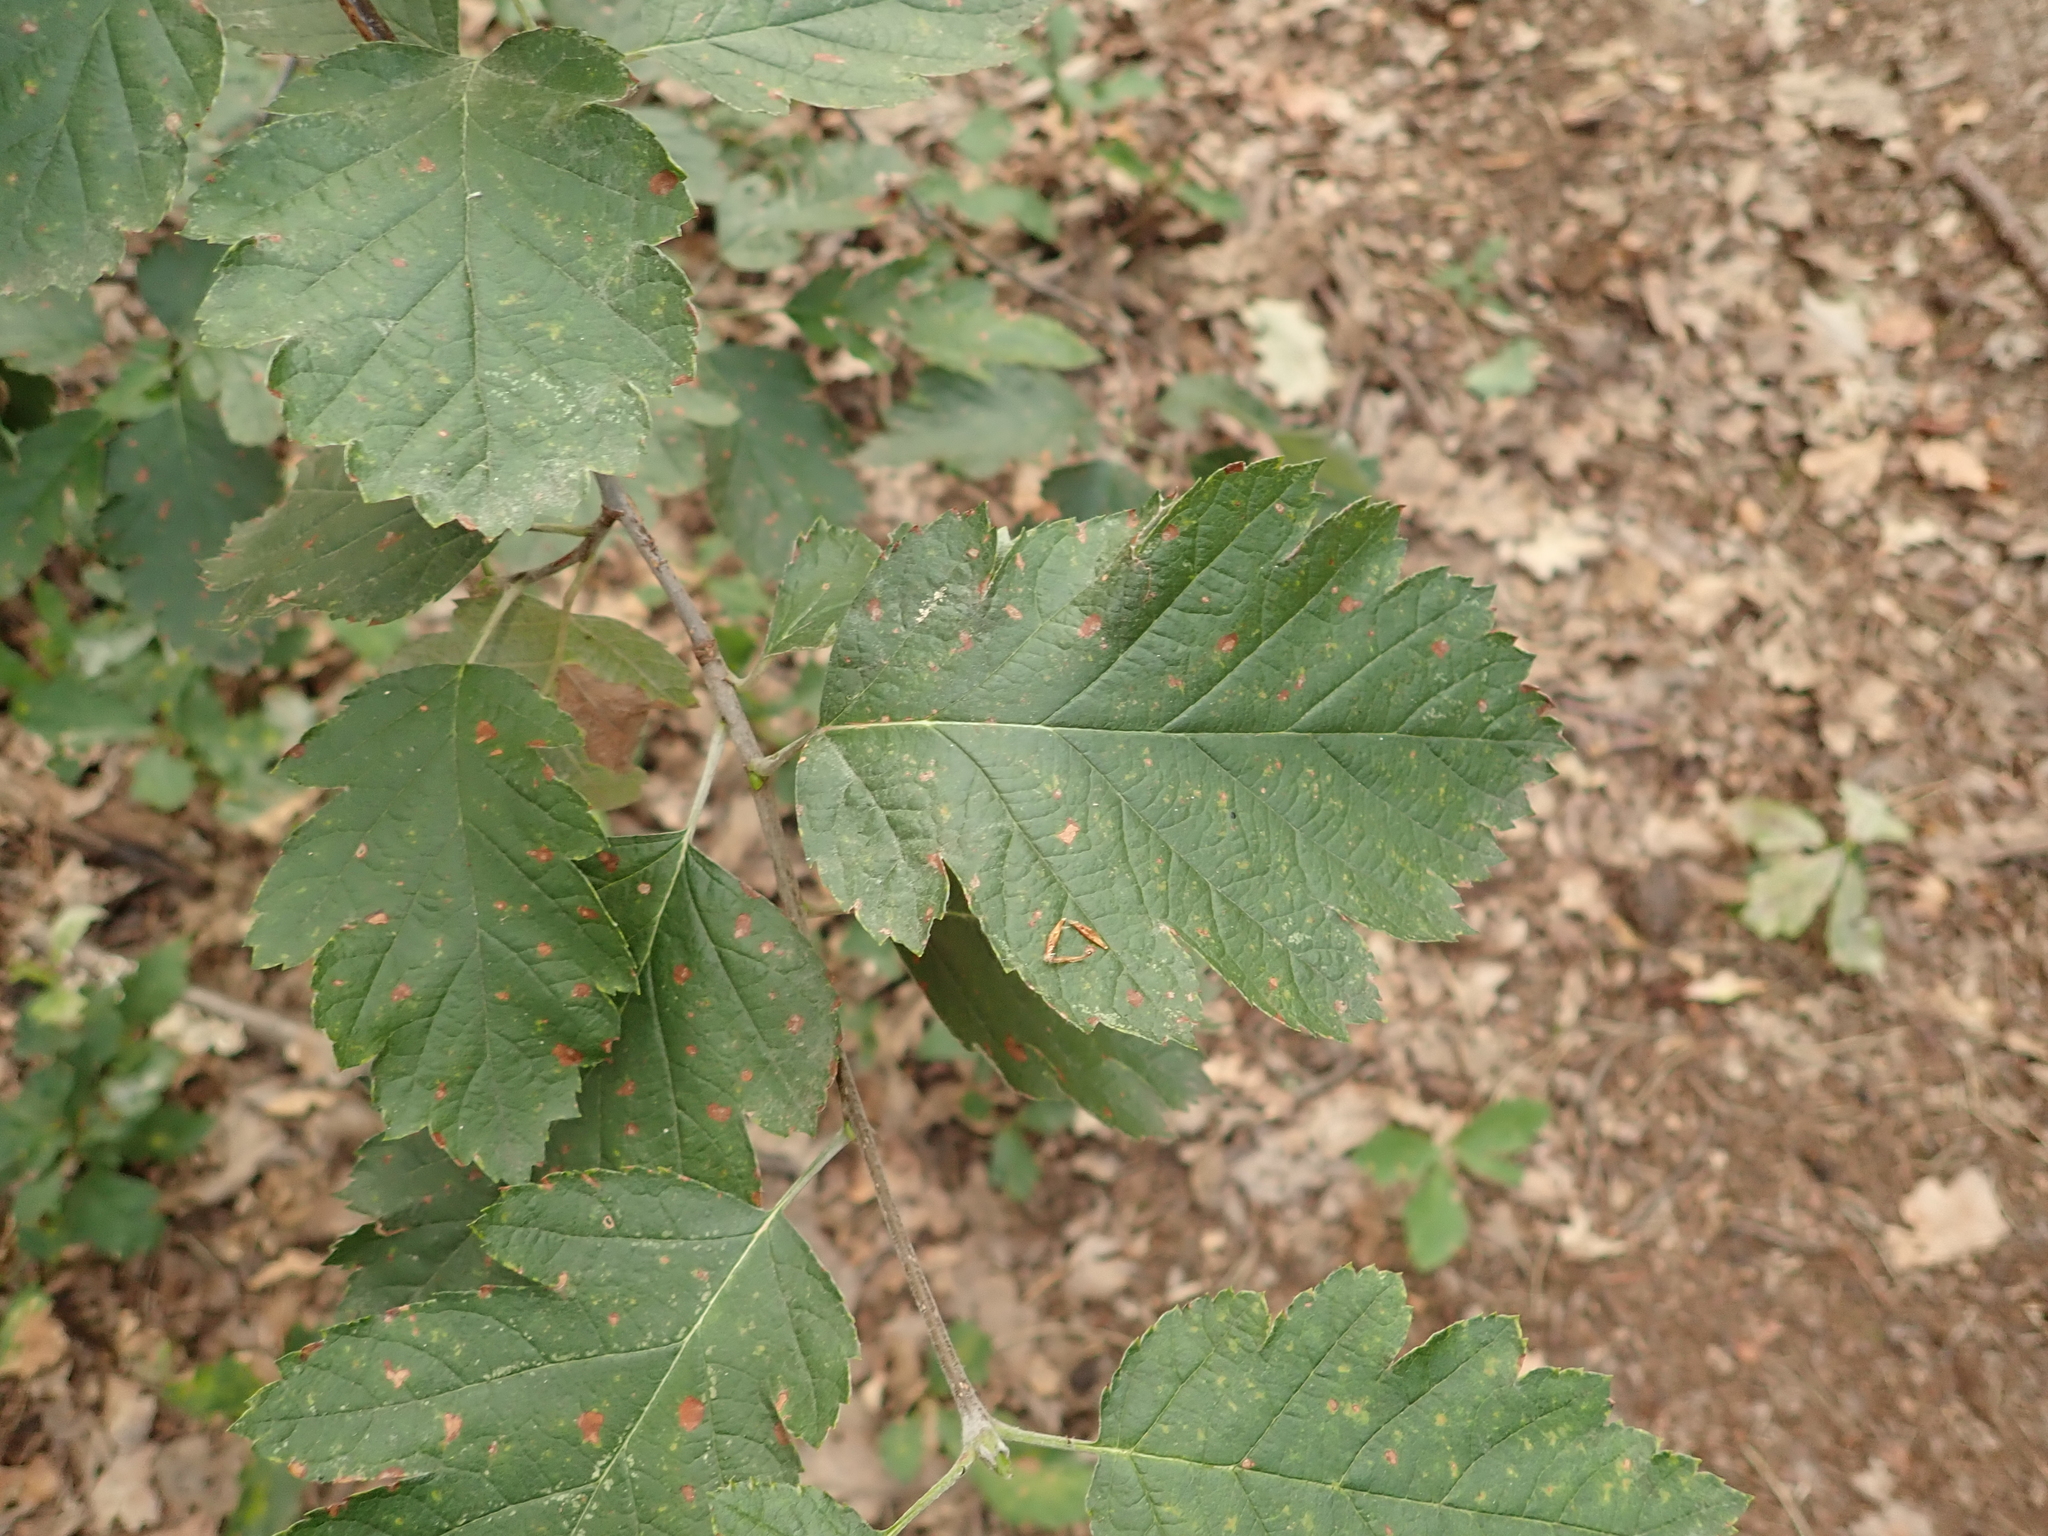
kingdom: Plantae
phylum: Tracheophyta
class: Magnoliopsida
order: Rosales
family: Rosaceae
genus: Scandosorbus
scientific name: Scandosorbus intermedia
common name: Swedish whitebeam
